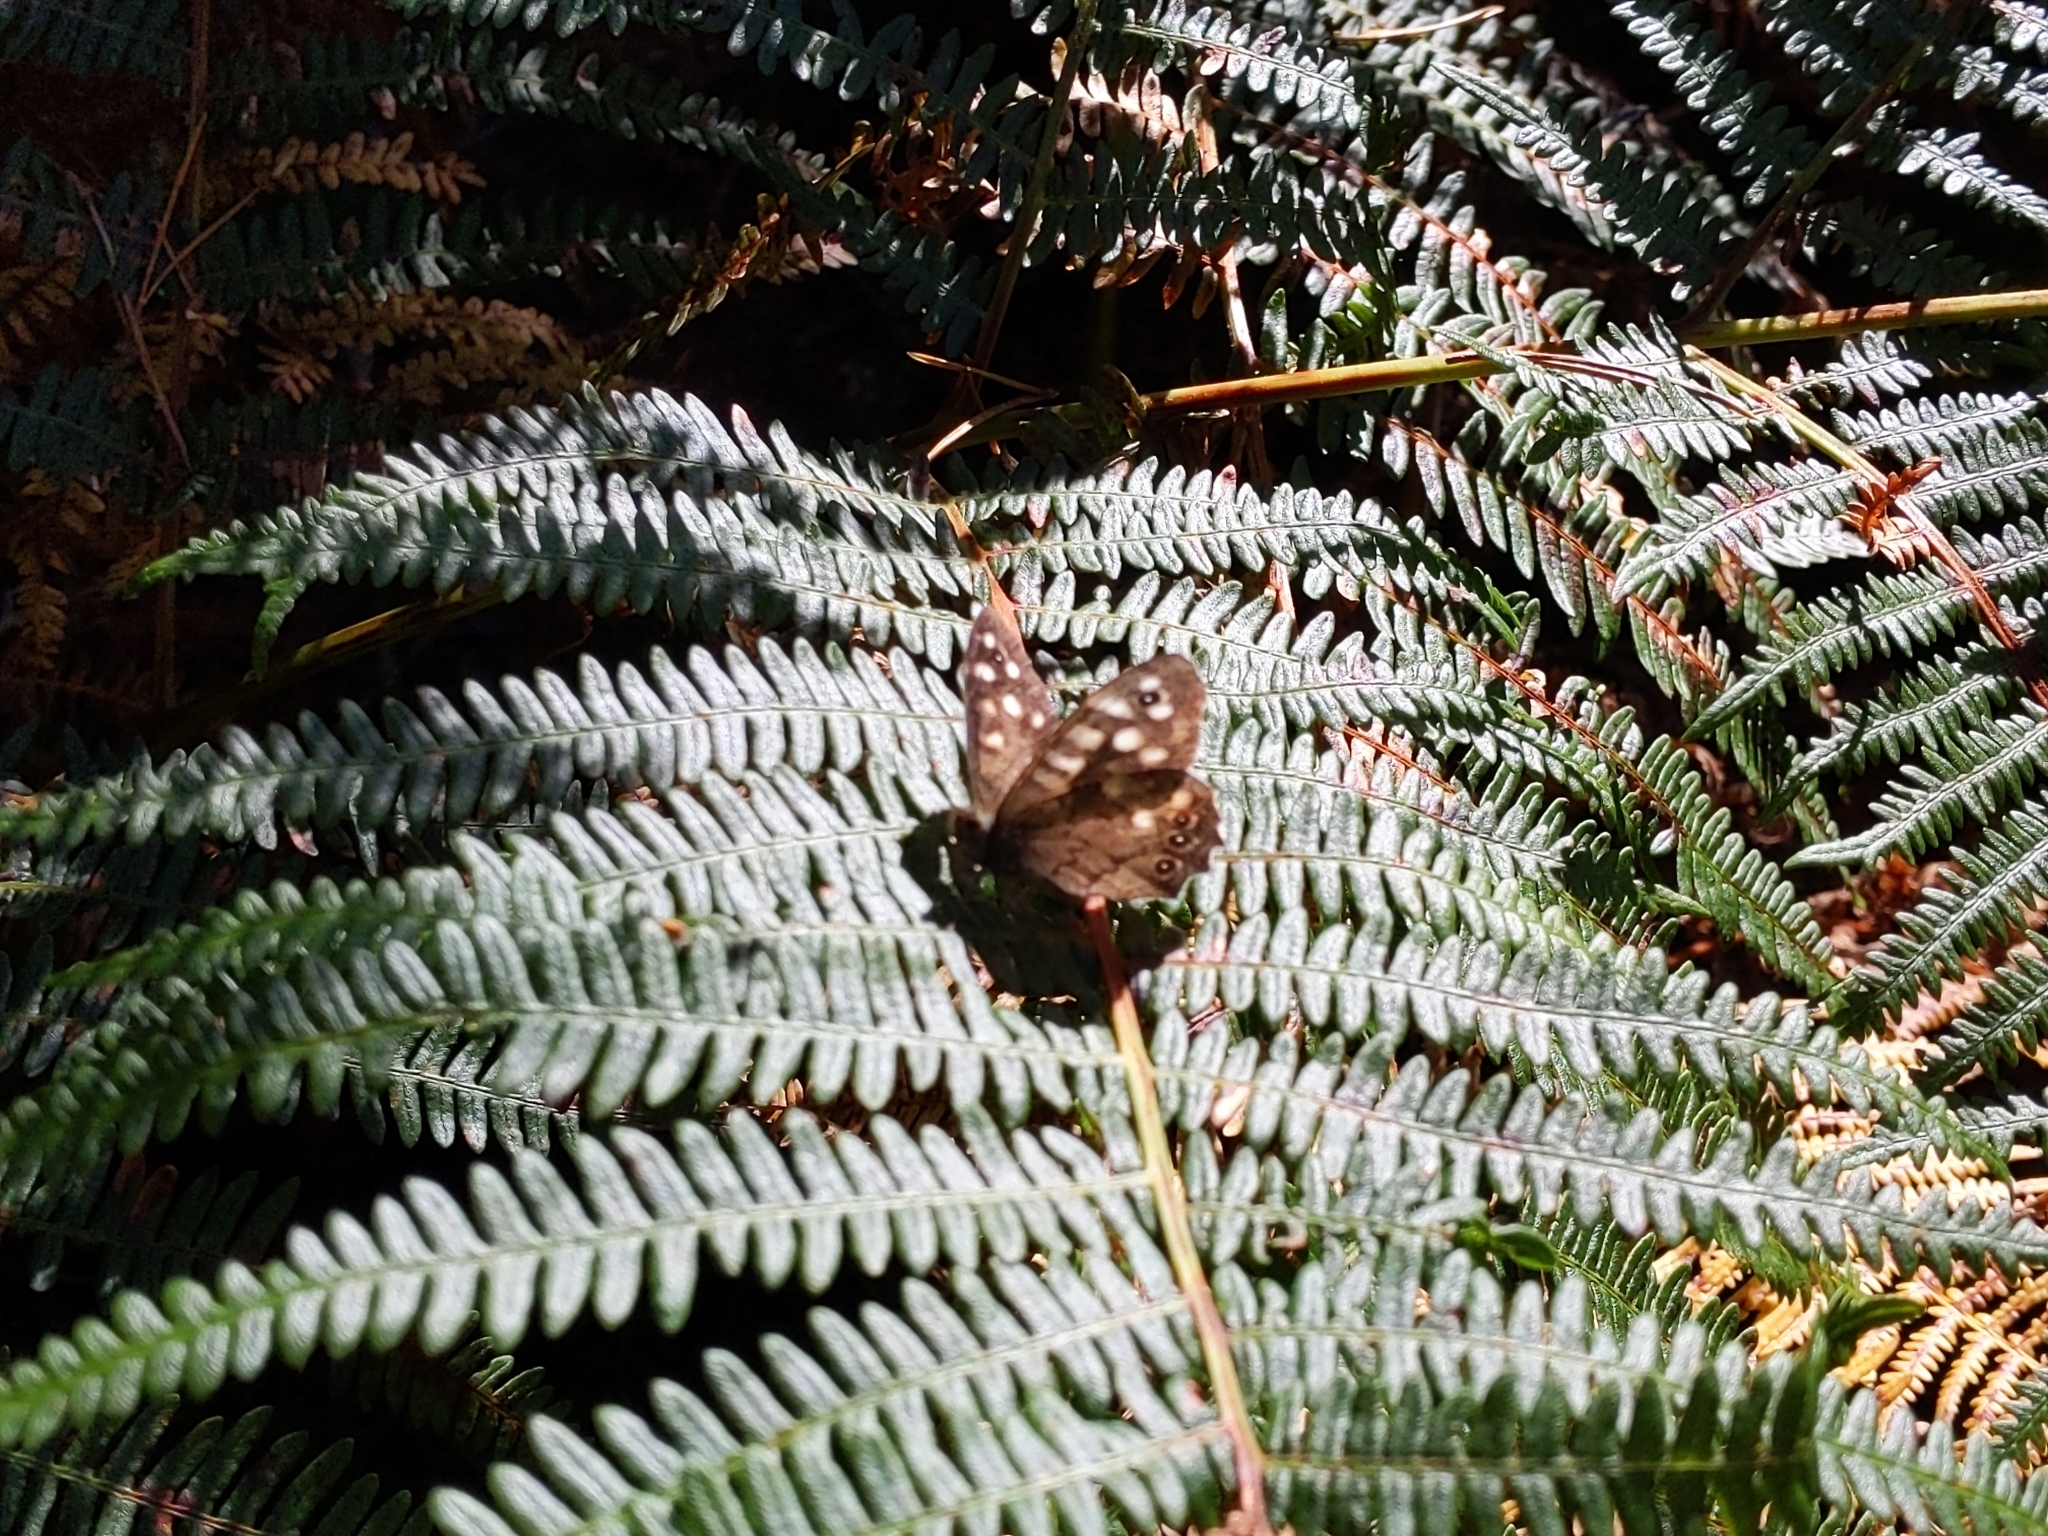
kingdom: Animalia
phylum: Arthropoda
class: Insecta
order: Lepidoptera
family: Nymphalidae
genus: Pararge
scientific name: Pararge aegeria
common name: Speckled wood
